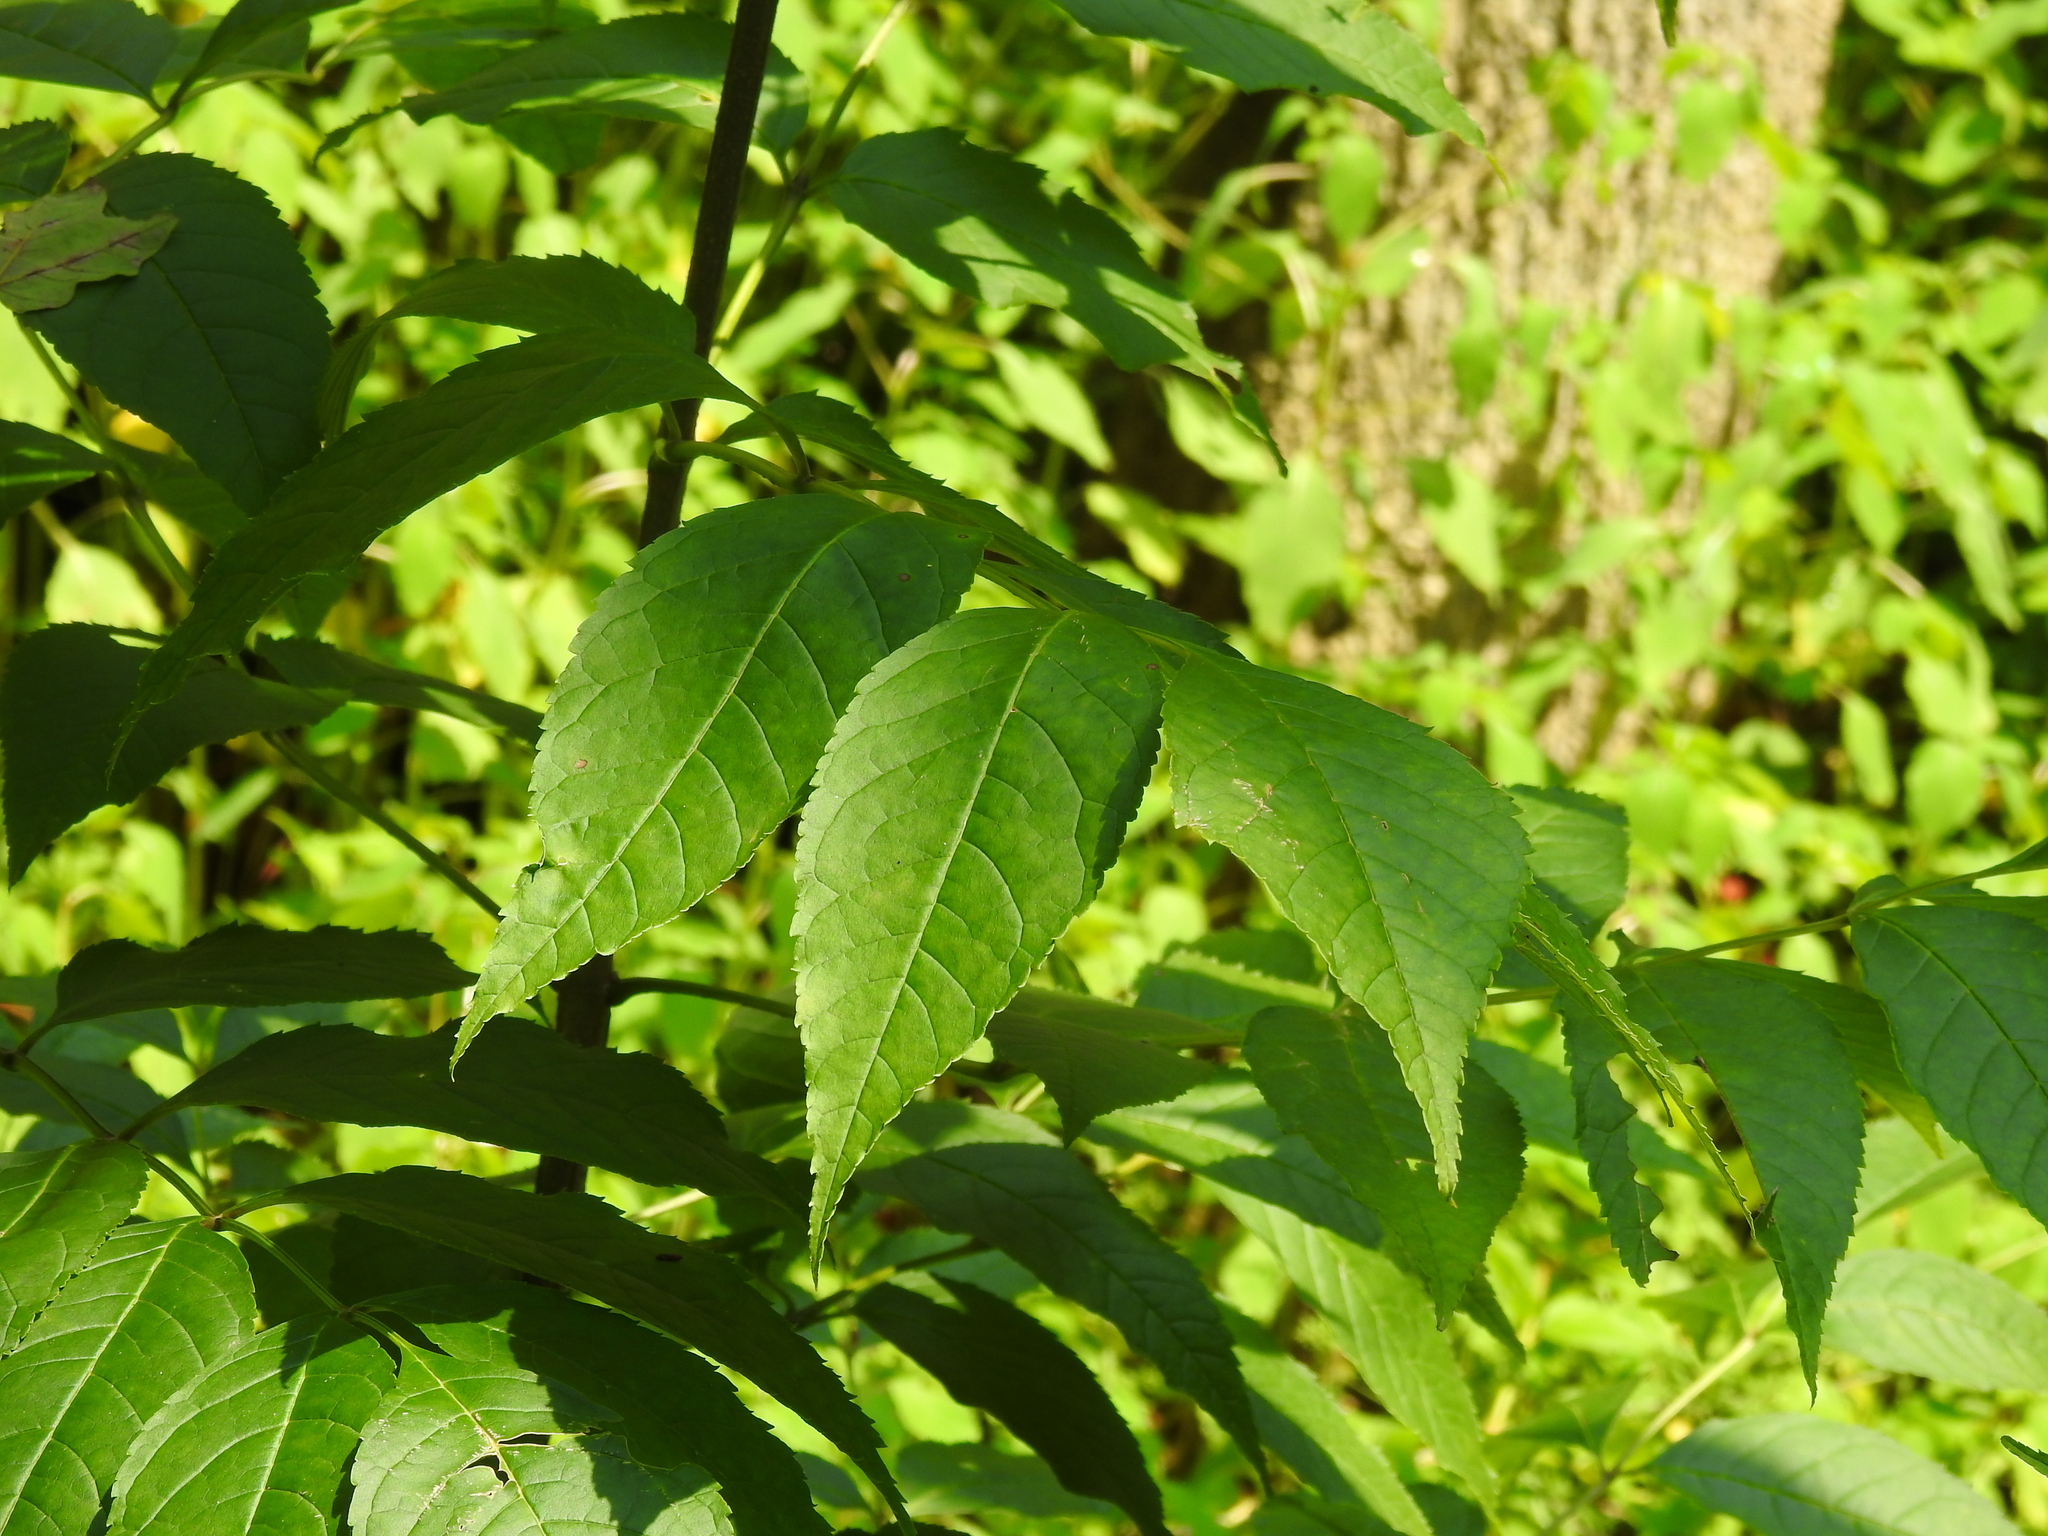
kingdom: Plantae
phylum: Tracheophyta
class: Magnoliopsida
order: Lamiales
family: Oleaceae
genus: Fraxinus
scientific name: Fraxinus americana
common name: White ash
